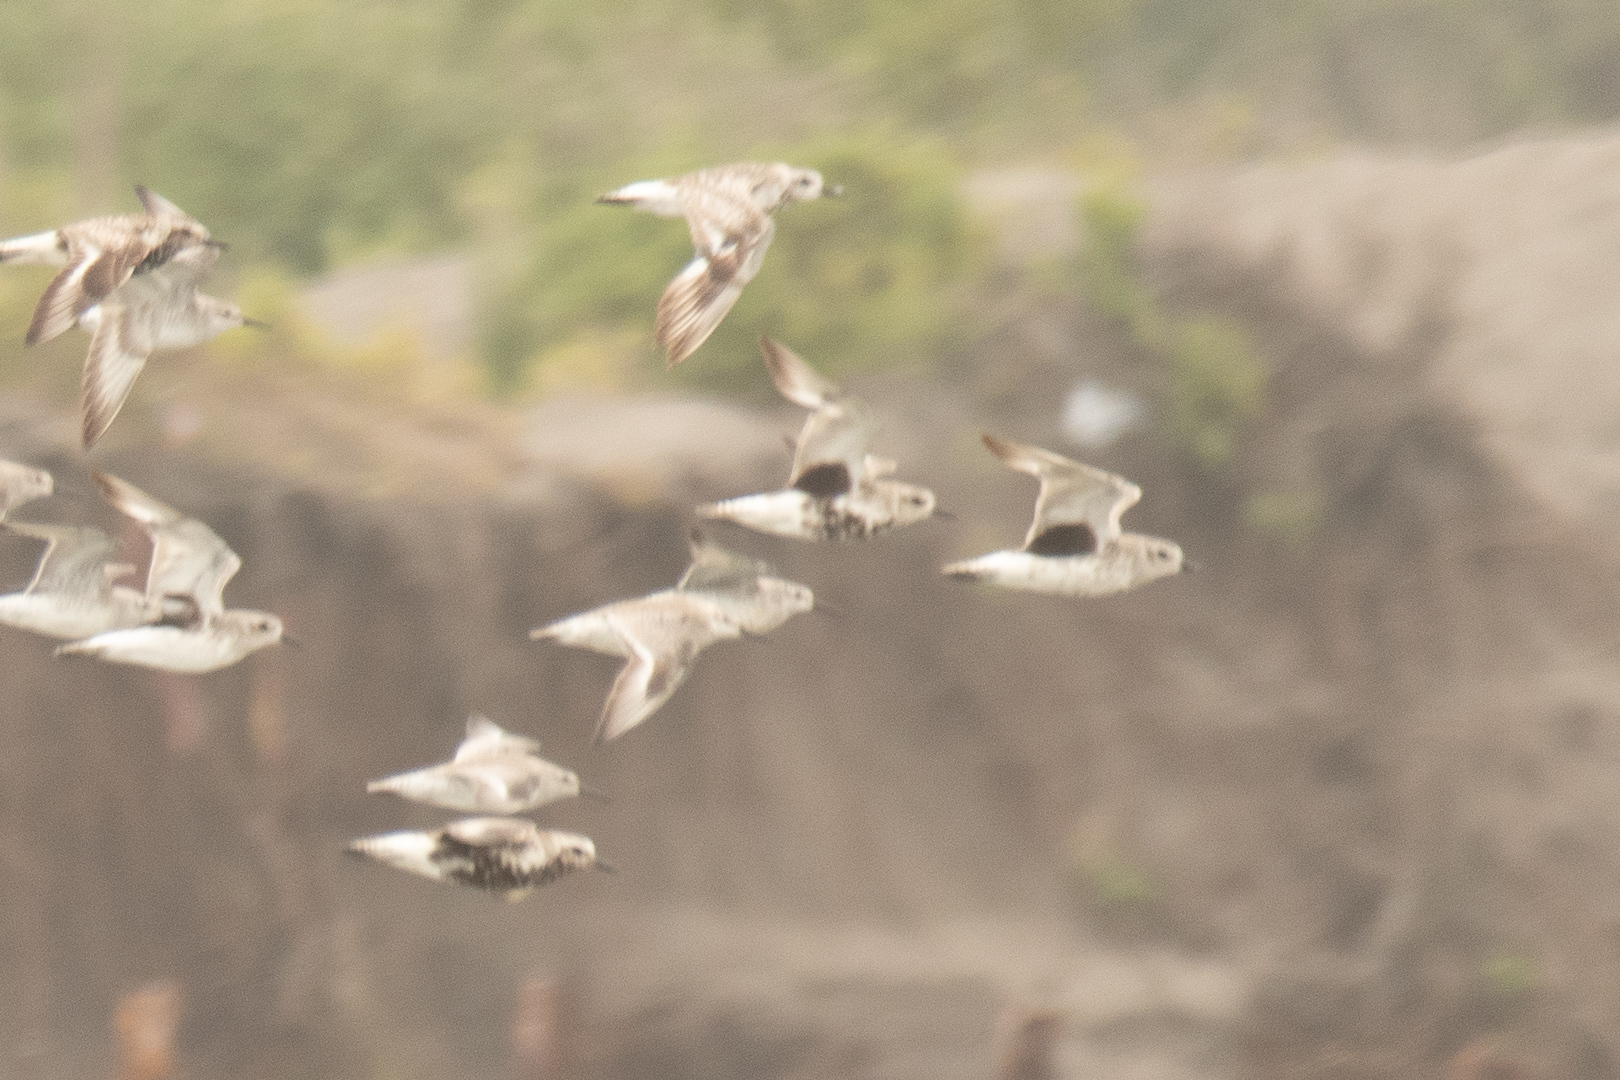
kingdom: Animalia
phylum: Chordata
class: Aves
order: Charadriiformes
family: Charadriidae
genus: Pluvialis
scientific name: Pluvialis squatarola
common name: Grey plover
